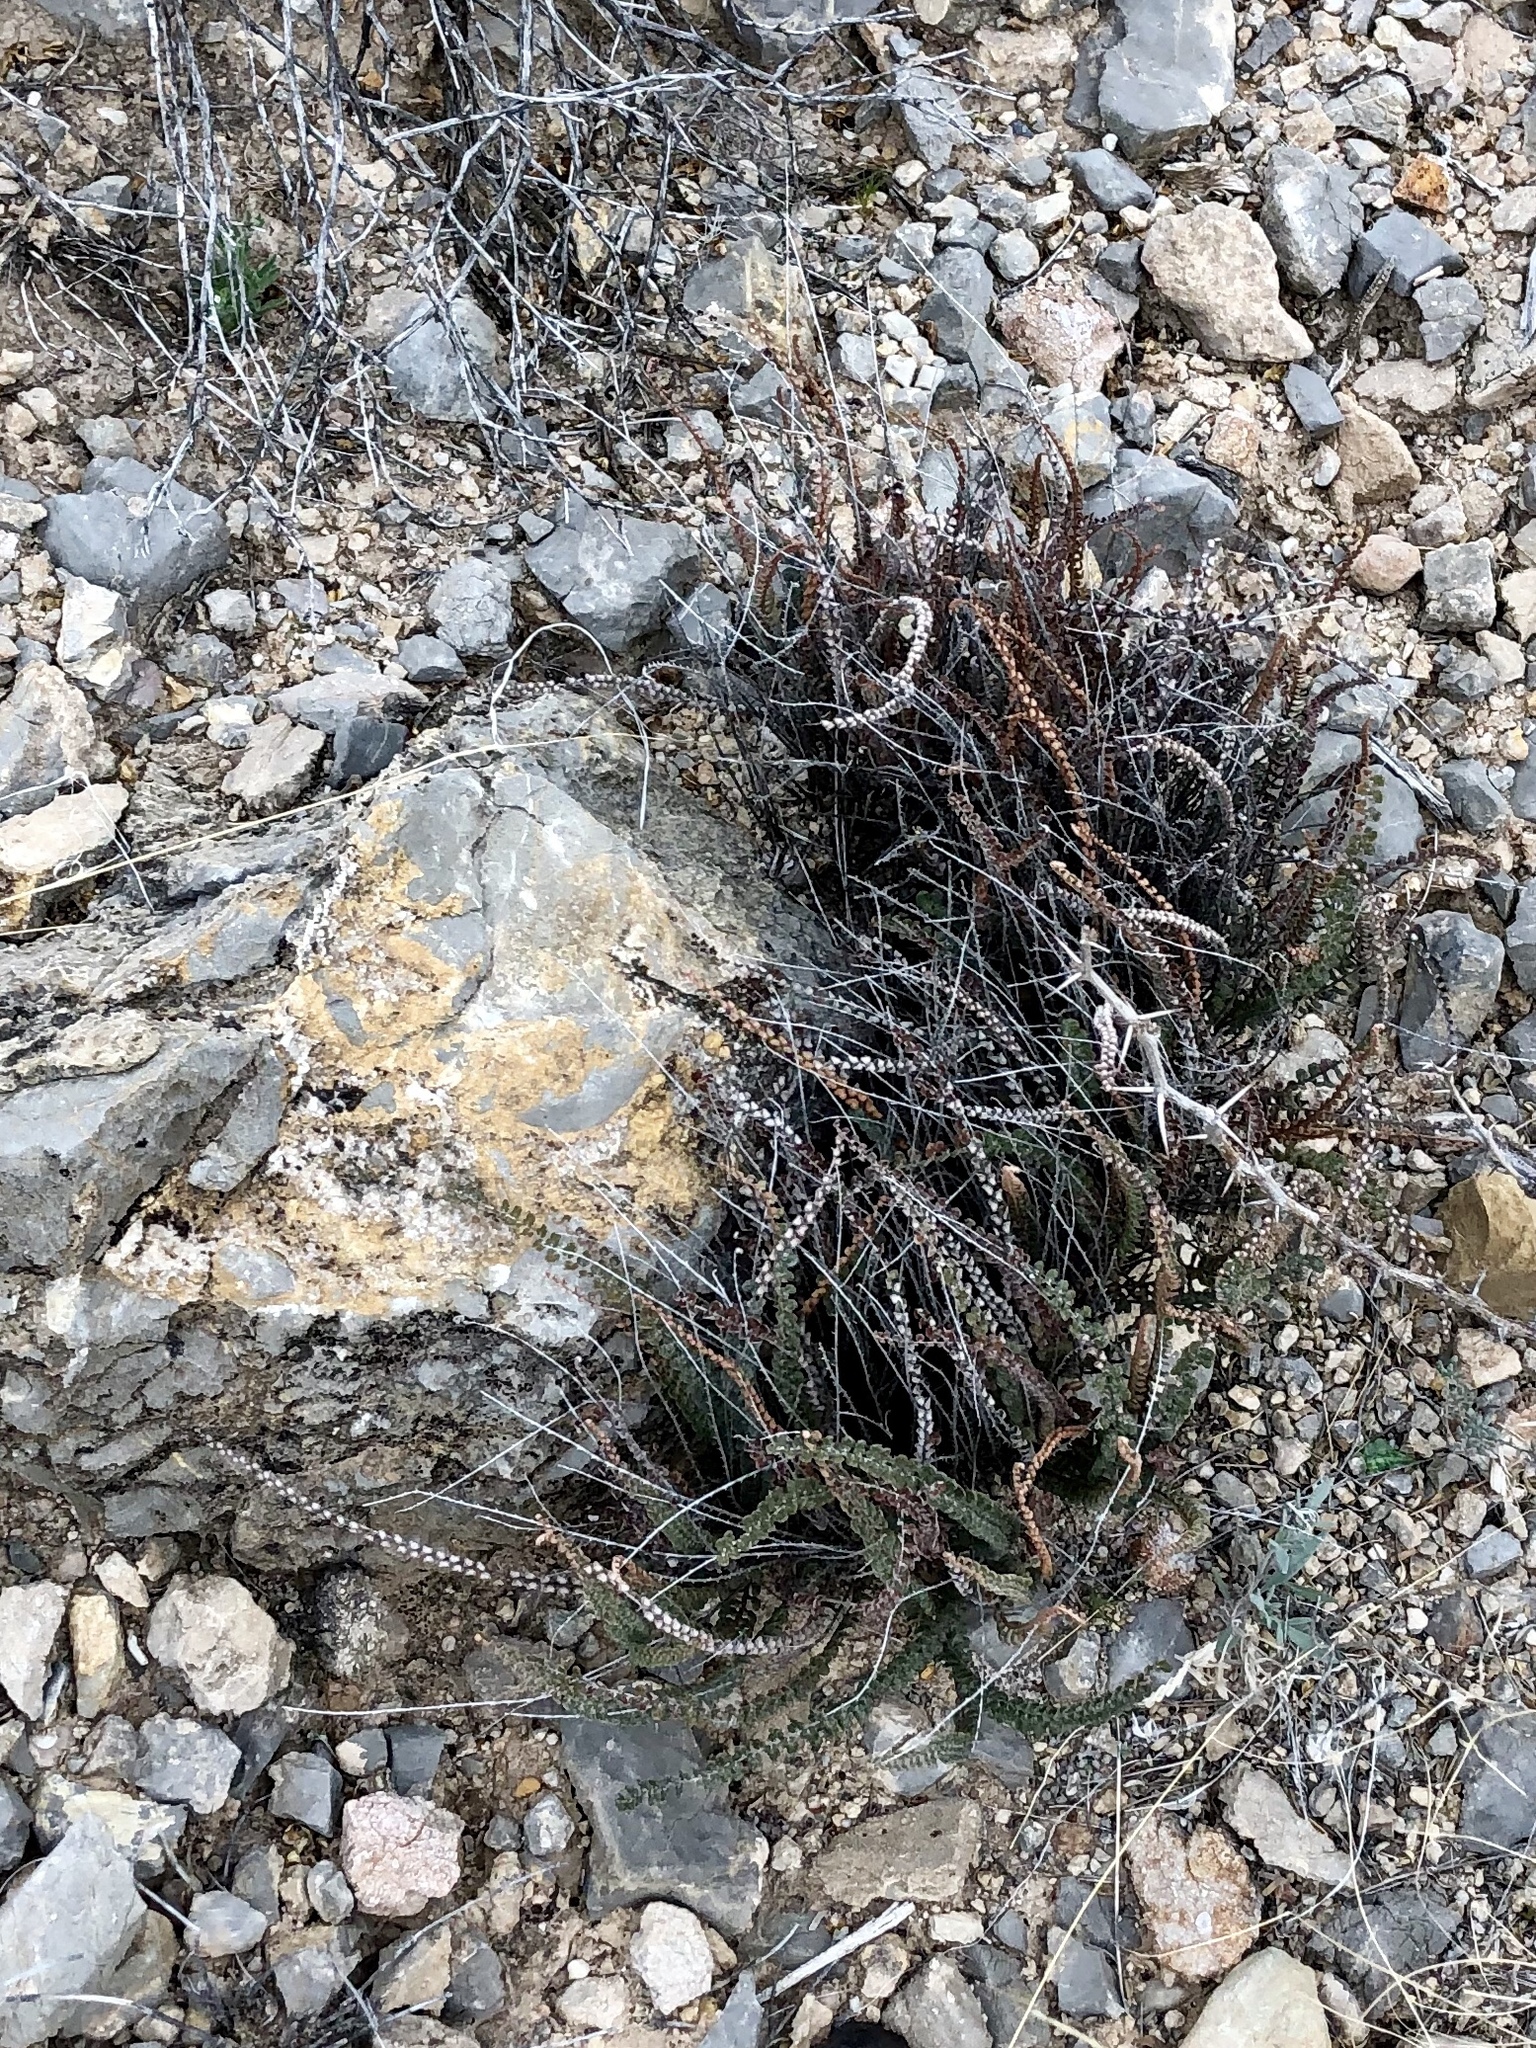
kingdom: Plantae
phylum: Tracheophyta
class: Polypodiopsida
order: Polypodiales
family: Pteridaceae
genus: Astrolepis
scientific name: Astrolepis cochisensis
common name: Scaly cloak fern
